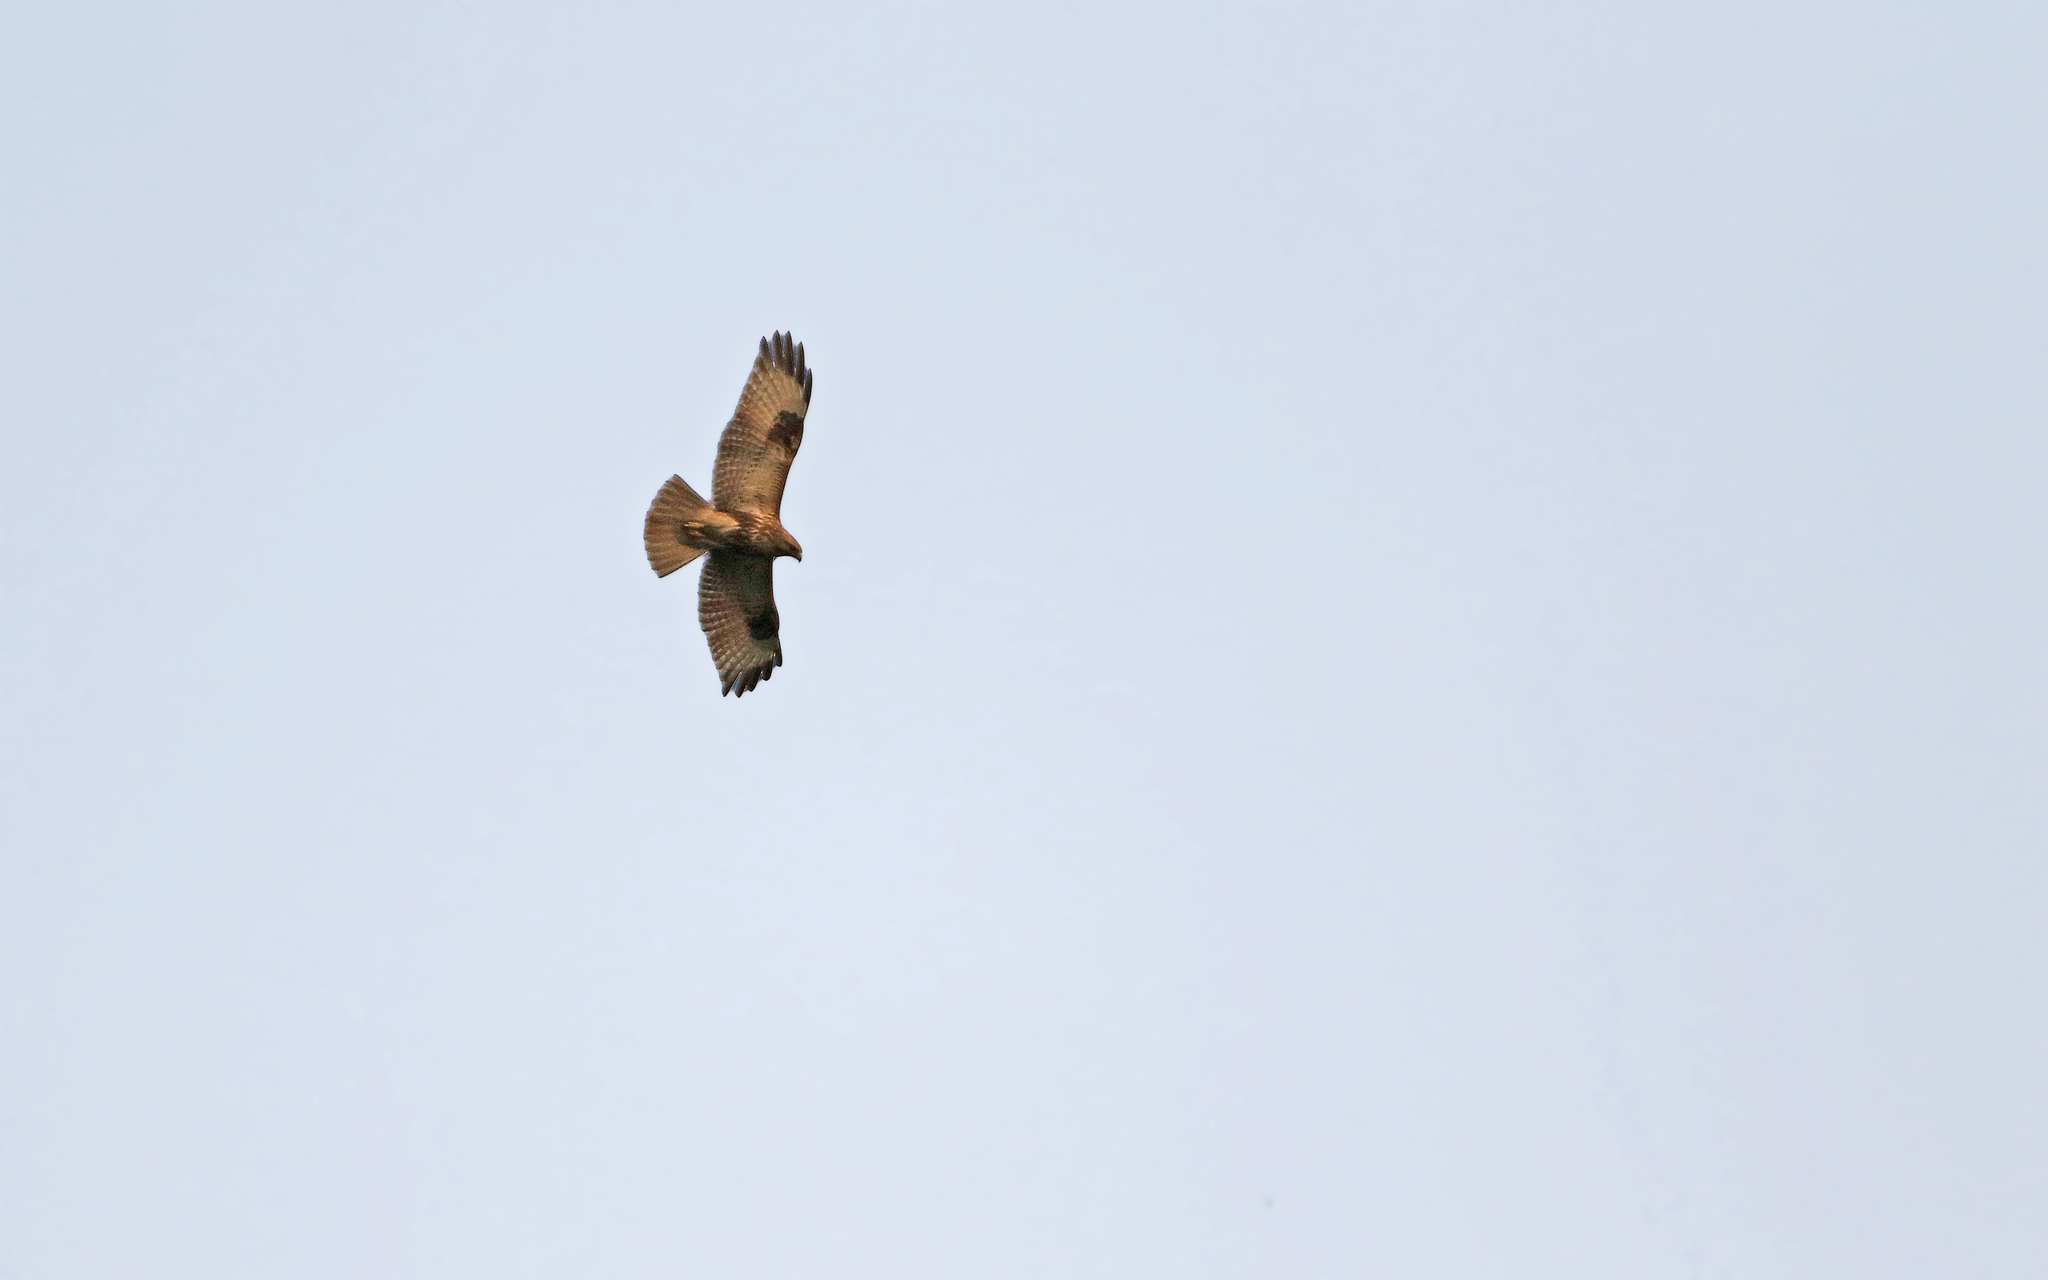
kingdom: Animalia
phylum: Chordata
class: Aves
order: Accipitriformes
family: Accipitridae
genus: Buteo
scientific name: Buteo japonicus
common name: Eastern buzzard
